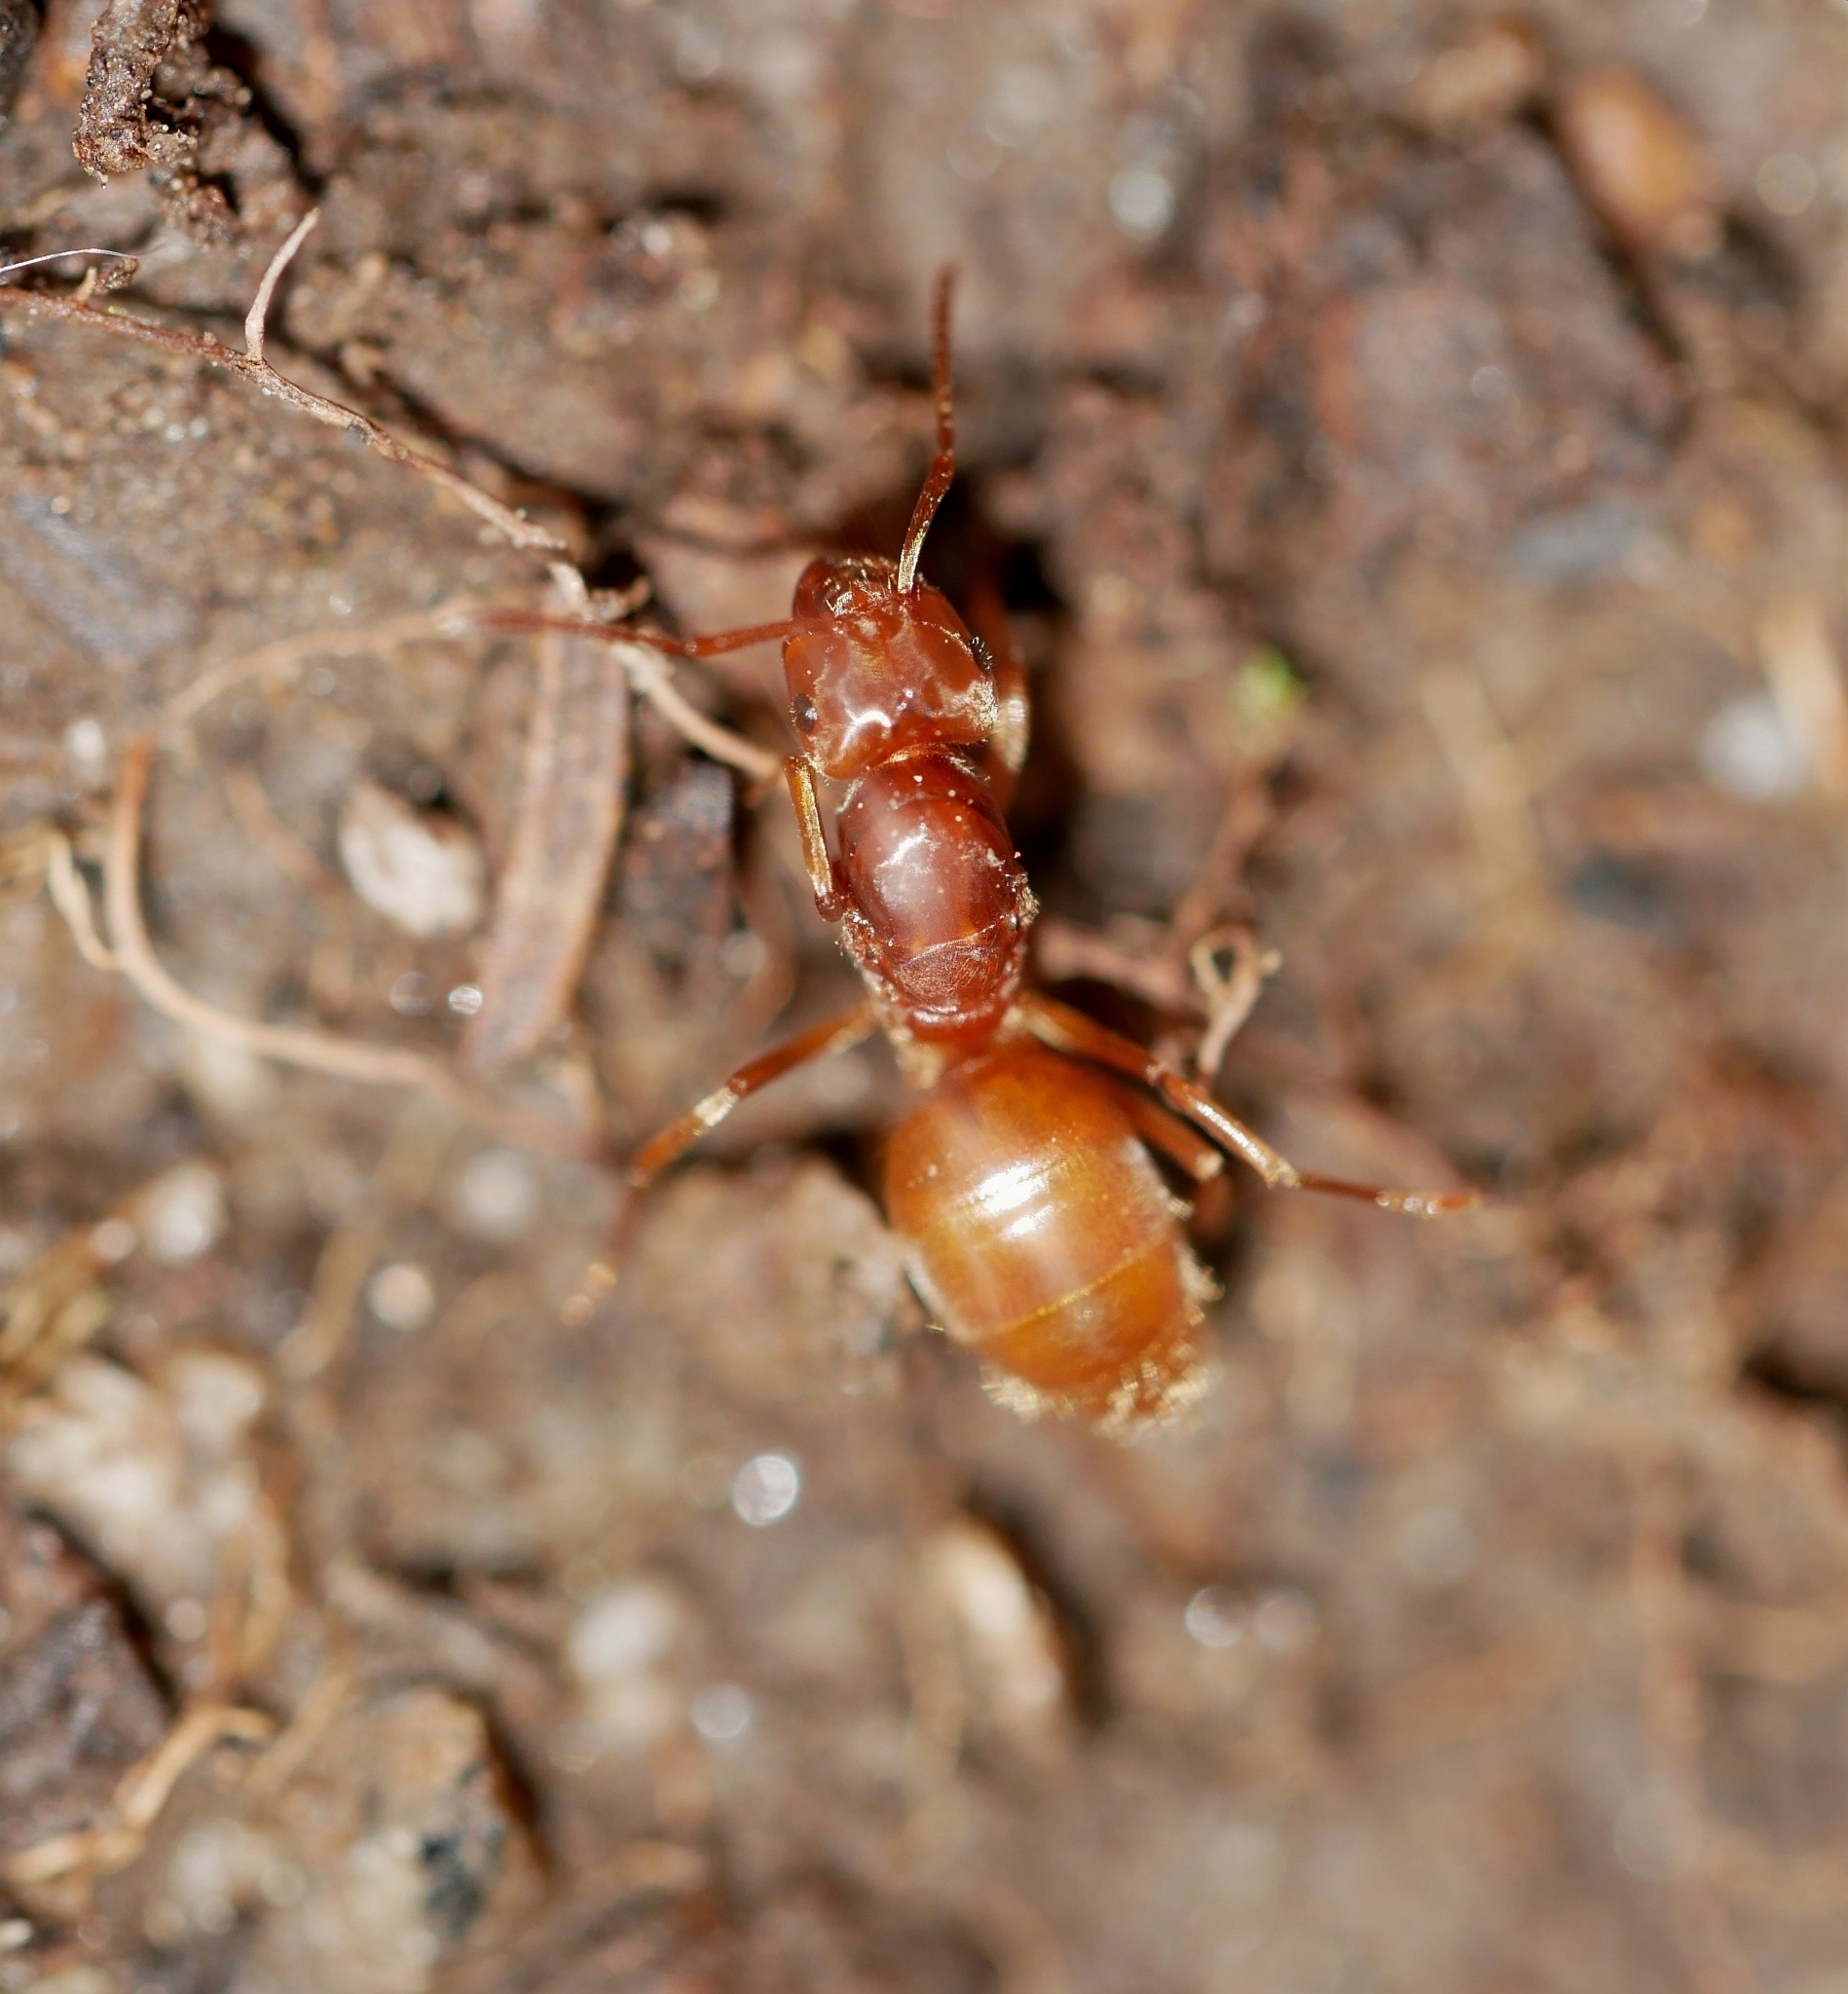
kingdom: Animalia
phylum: Arthropoda
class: Insecta
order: Hymenoptera
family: Formicidae
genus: Lasius
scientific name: Lasius subumbratus
